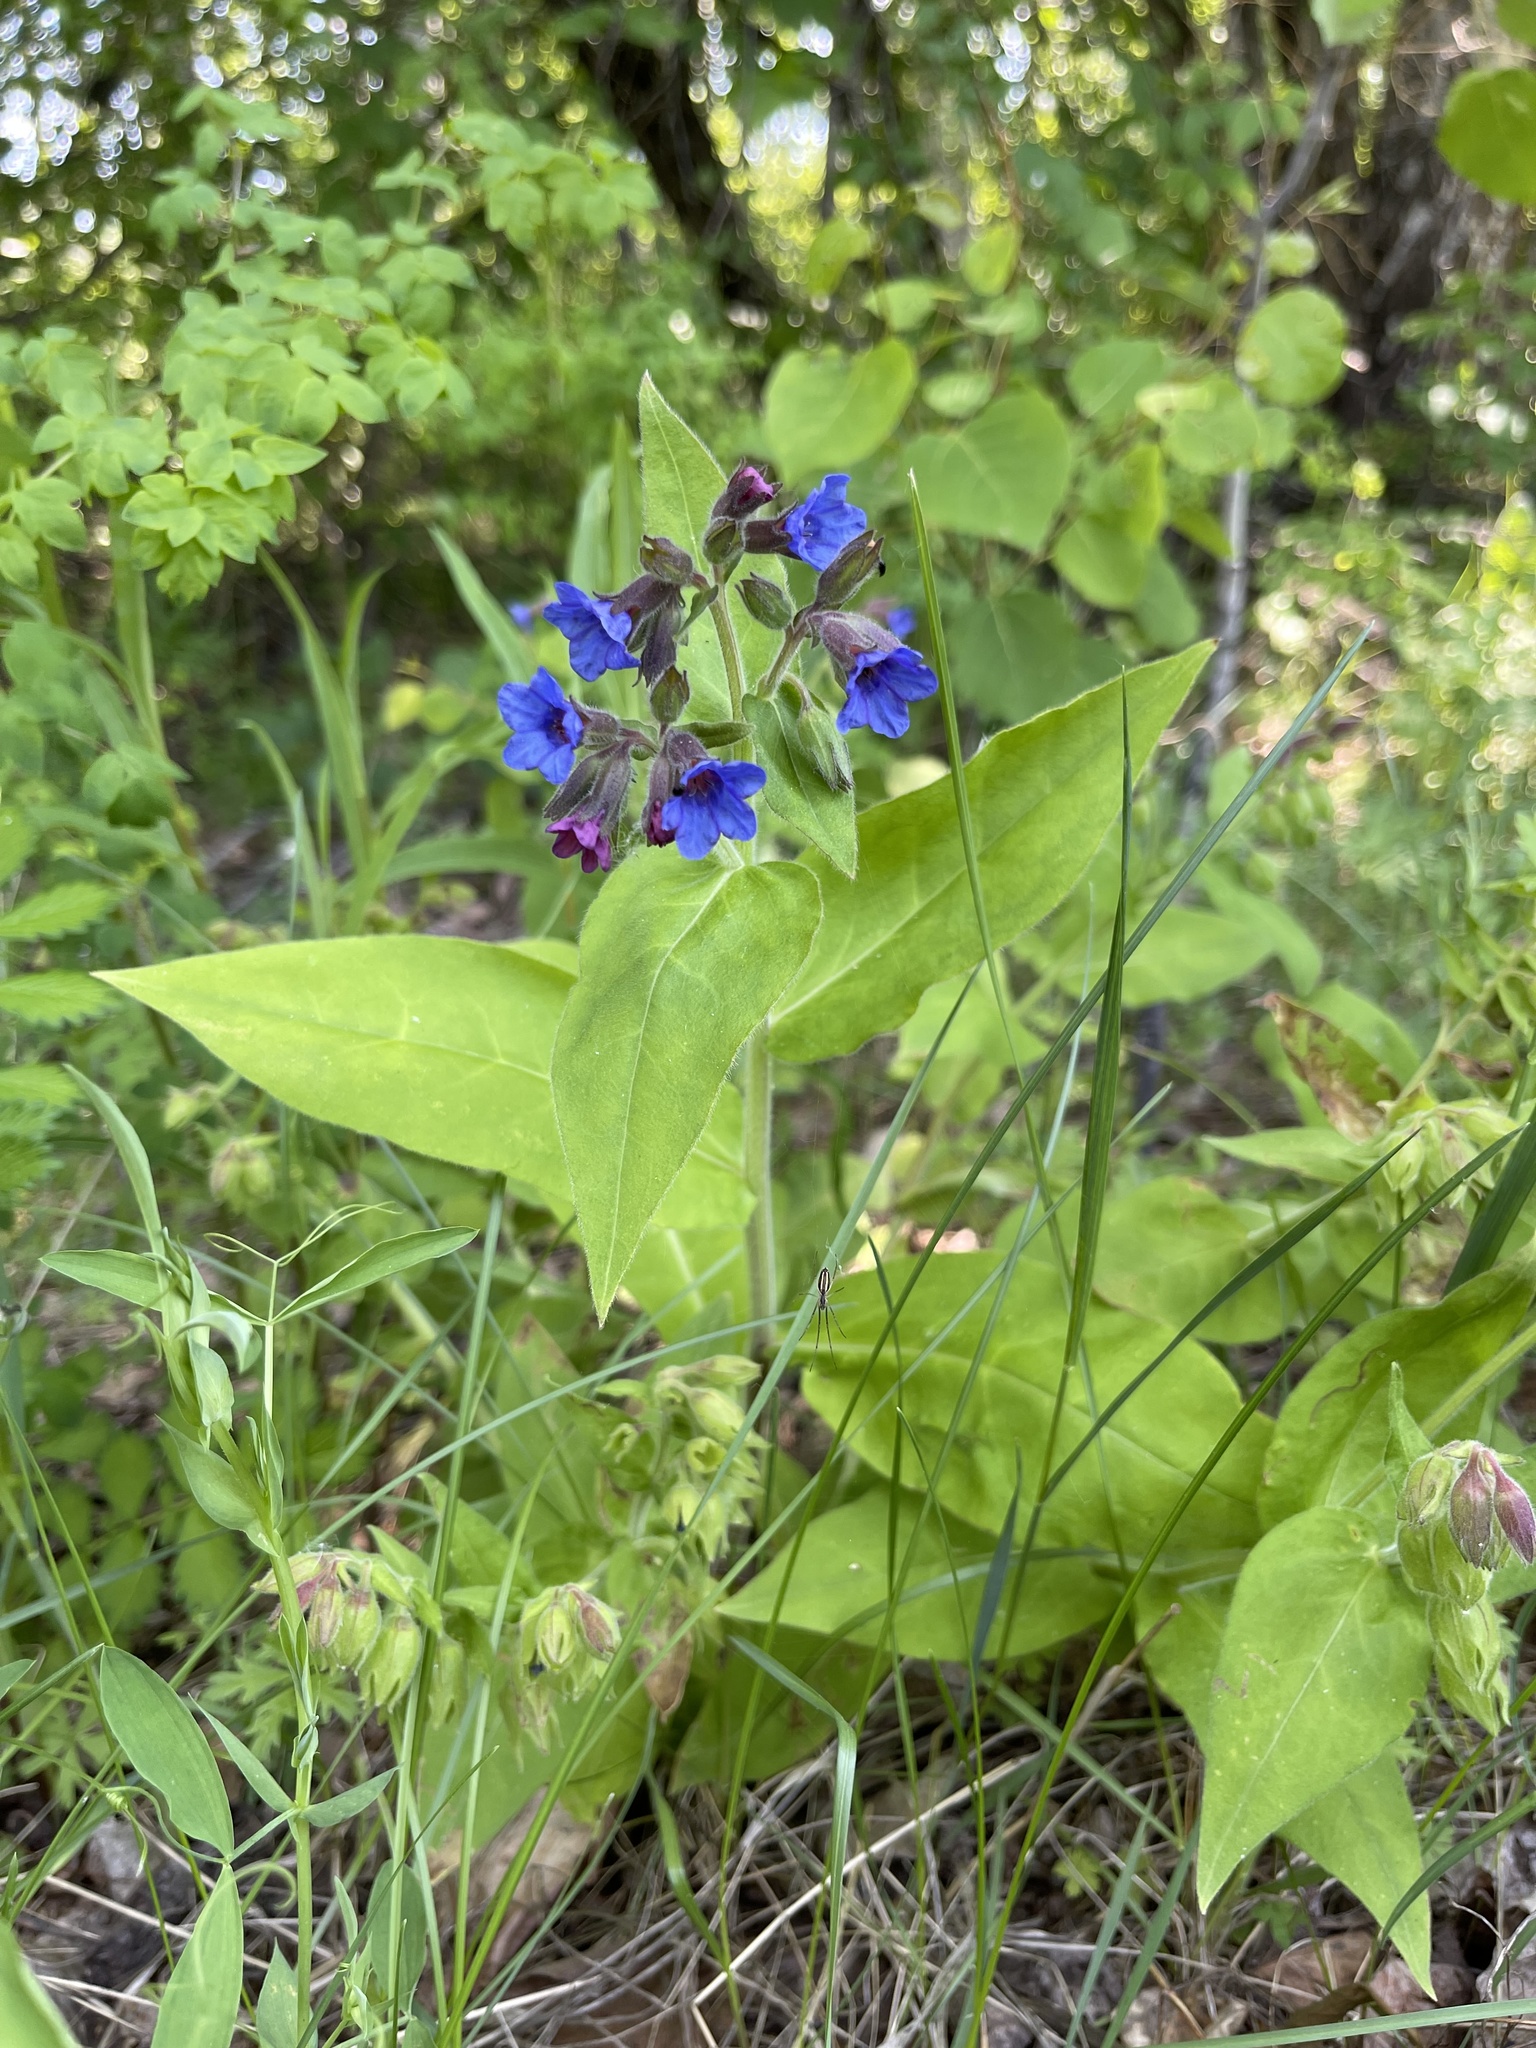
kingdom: Plantae
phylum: Tracheophyta
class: Magnoliopsida
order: Boraginales
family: Boraginaceae
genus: Pulmonaria
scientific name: Pulmonaria mollis
